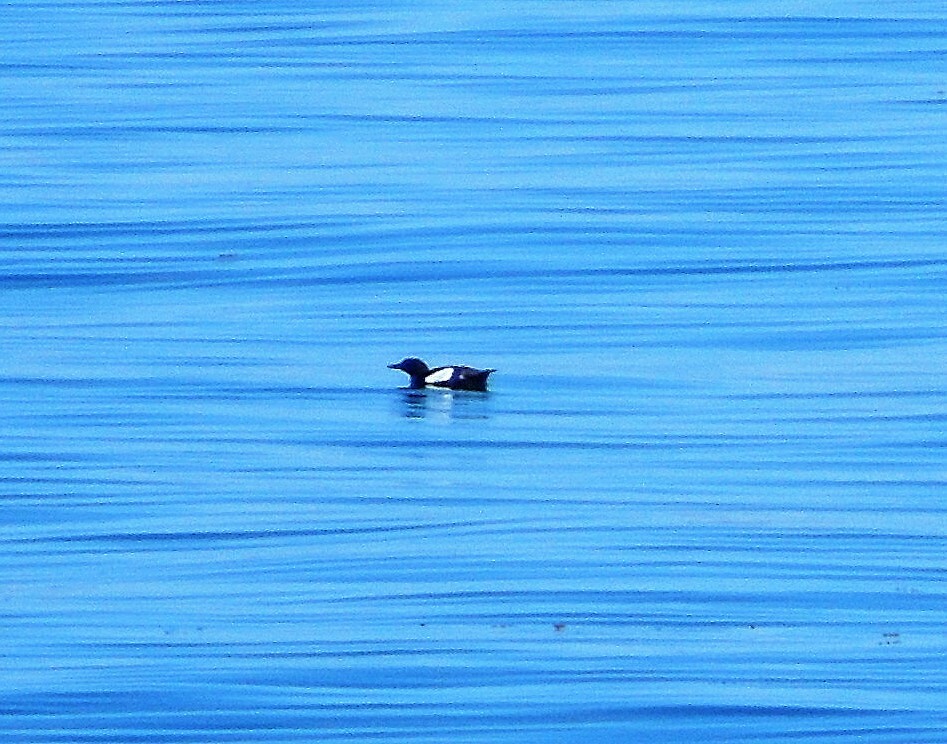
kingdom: Animalia
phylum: Chordata
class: Aves
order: Charadriiformes
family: Alcidae
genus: Cepphus
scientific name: Cepphus grylle
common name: Black guillemot
